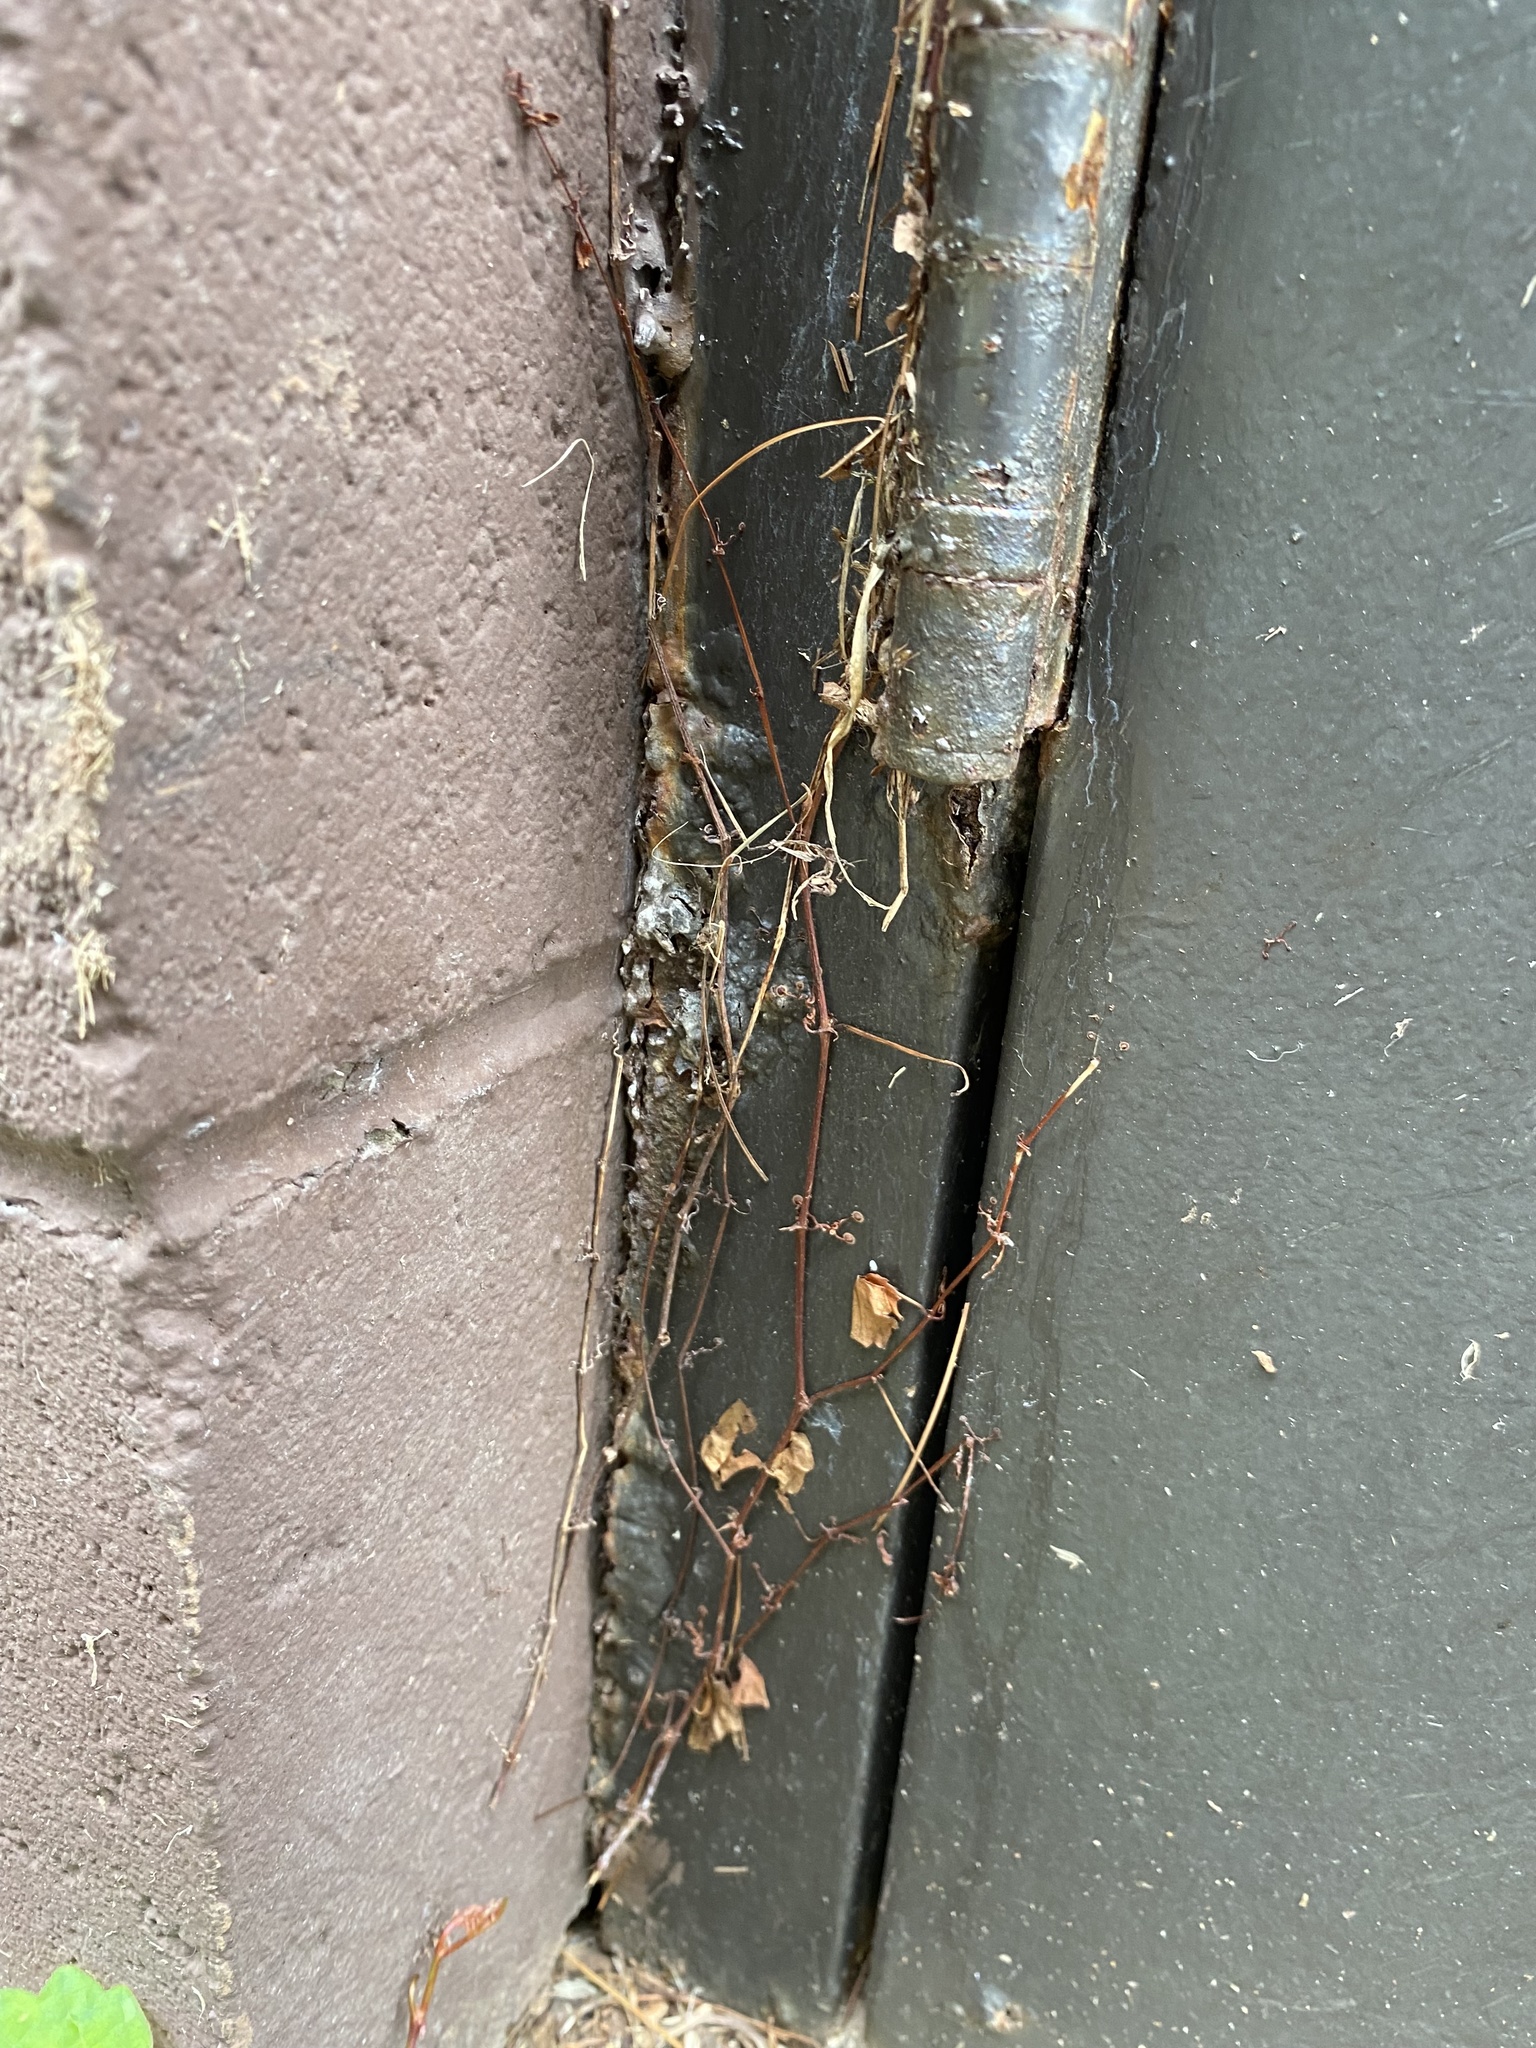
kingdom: Plantae
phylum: Tracheophyta
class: Magnoliopsida
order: Vitales
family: Vitaceae
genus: Parthenocissus
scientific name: Parthenocissus tricuspidata
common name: Boston ivy
